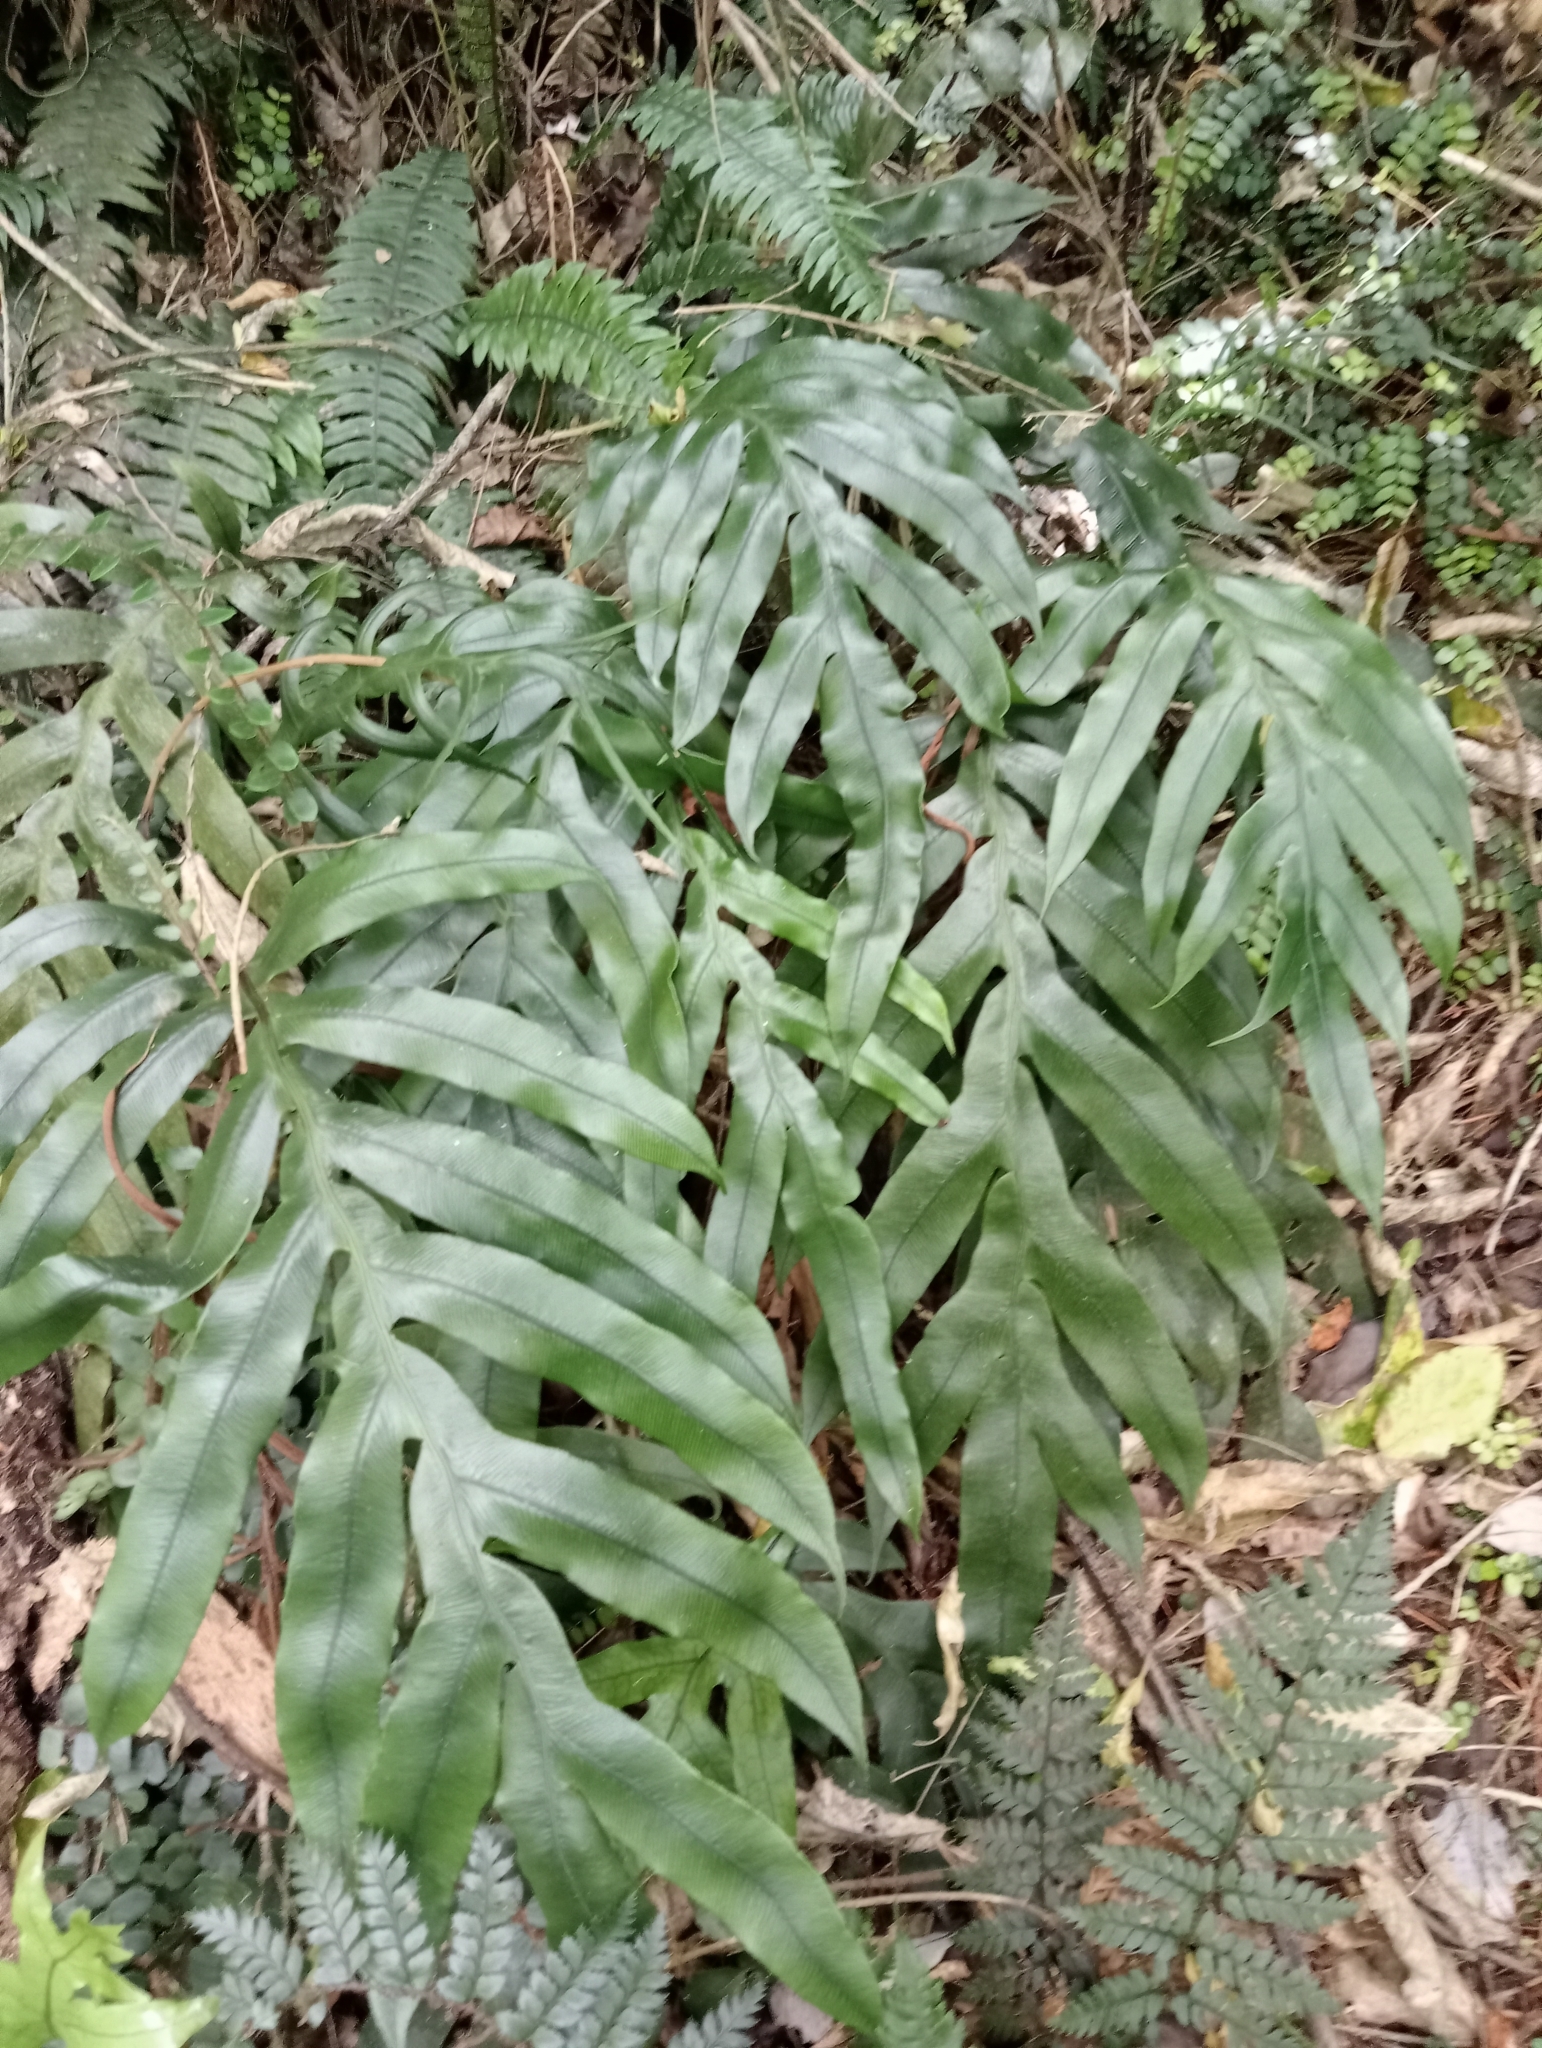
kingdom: Plantae
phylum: Tracheophyta
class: Polypodiopsida
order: Polypodiales
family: Blechnaceae
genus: Austroblechnum
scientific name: Austroblechnum colensoi
